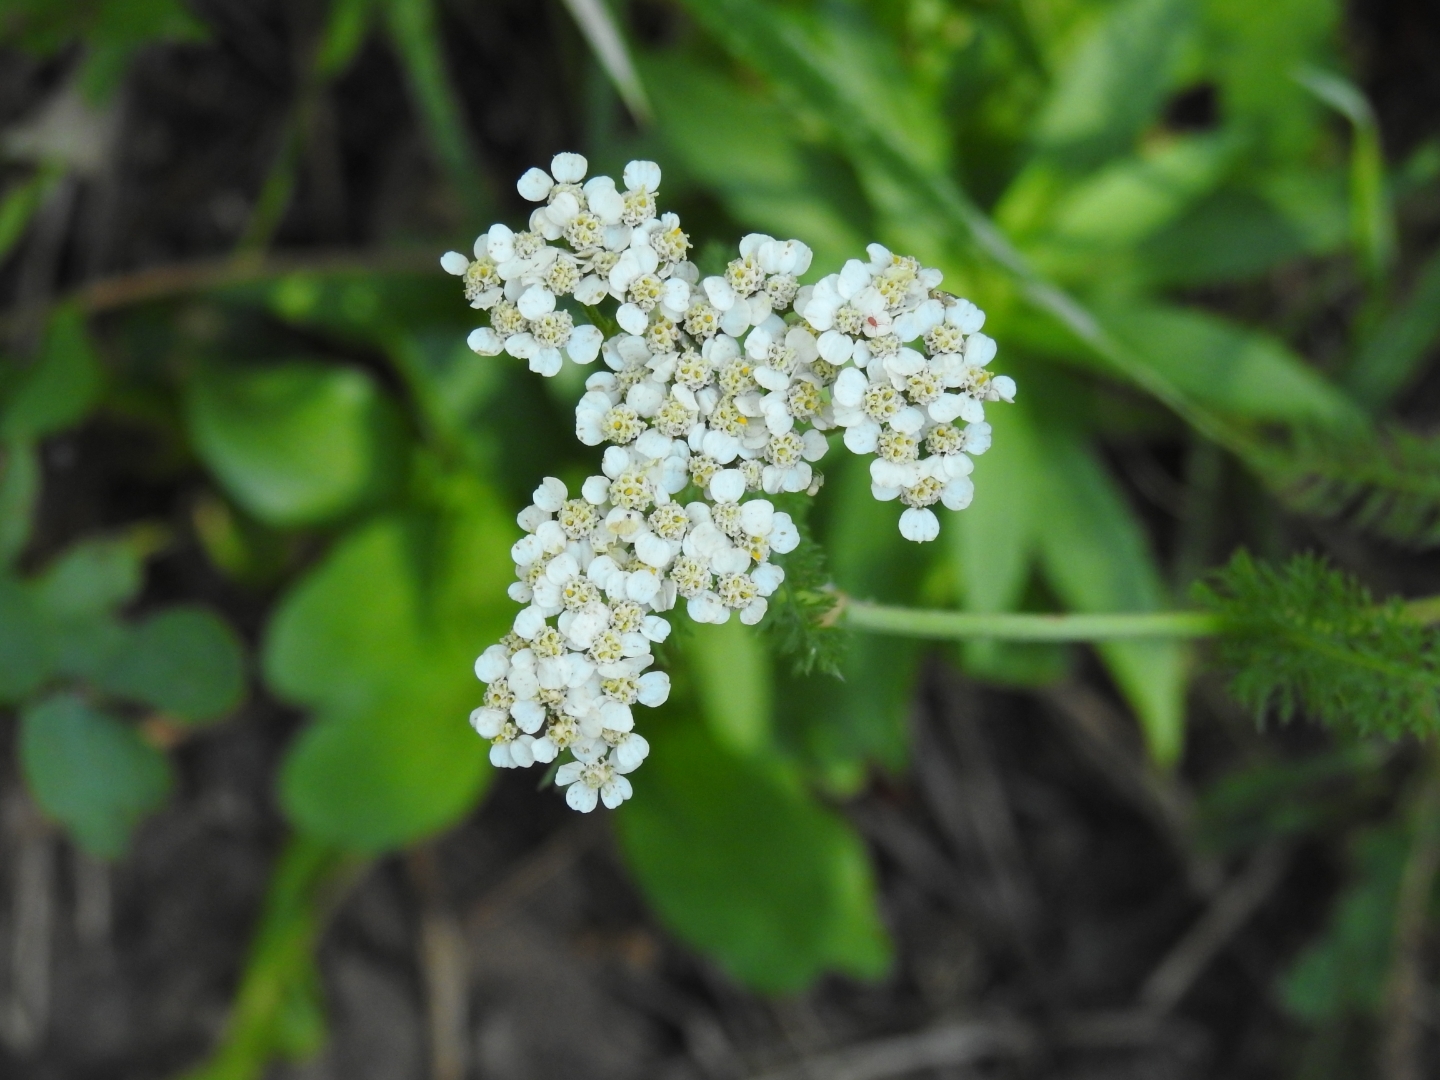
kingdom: Plantae
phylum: Tracheophyta
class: Magnoliopsida
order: Asterales
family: Asteraceae
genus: Achillea
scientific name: Achillea millefolium
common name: Yarrow
